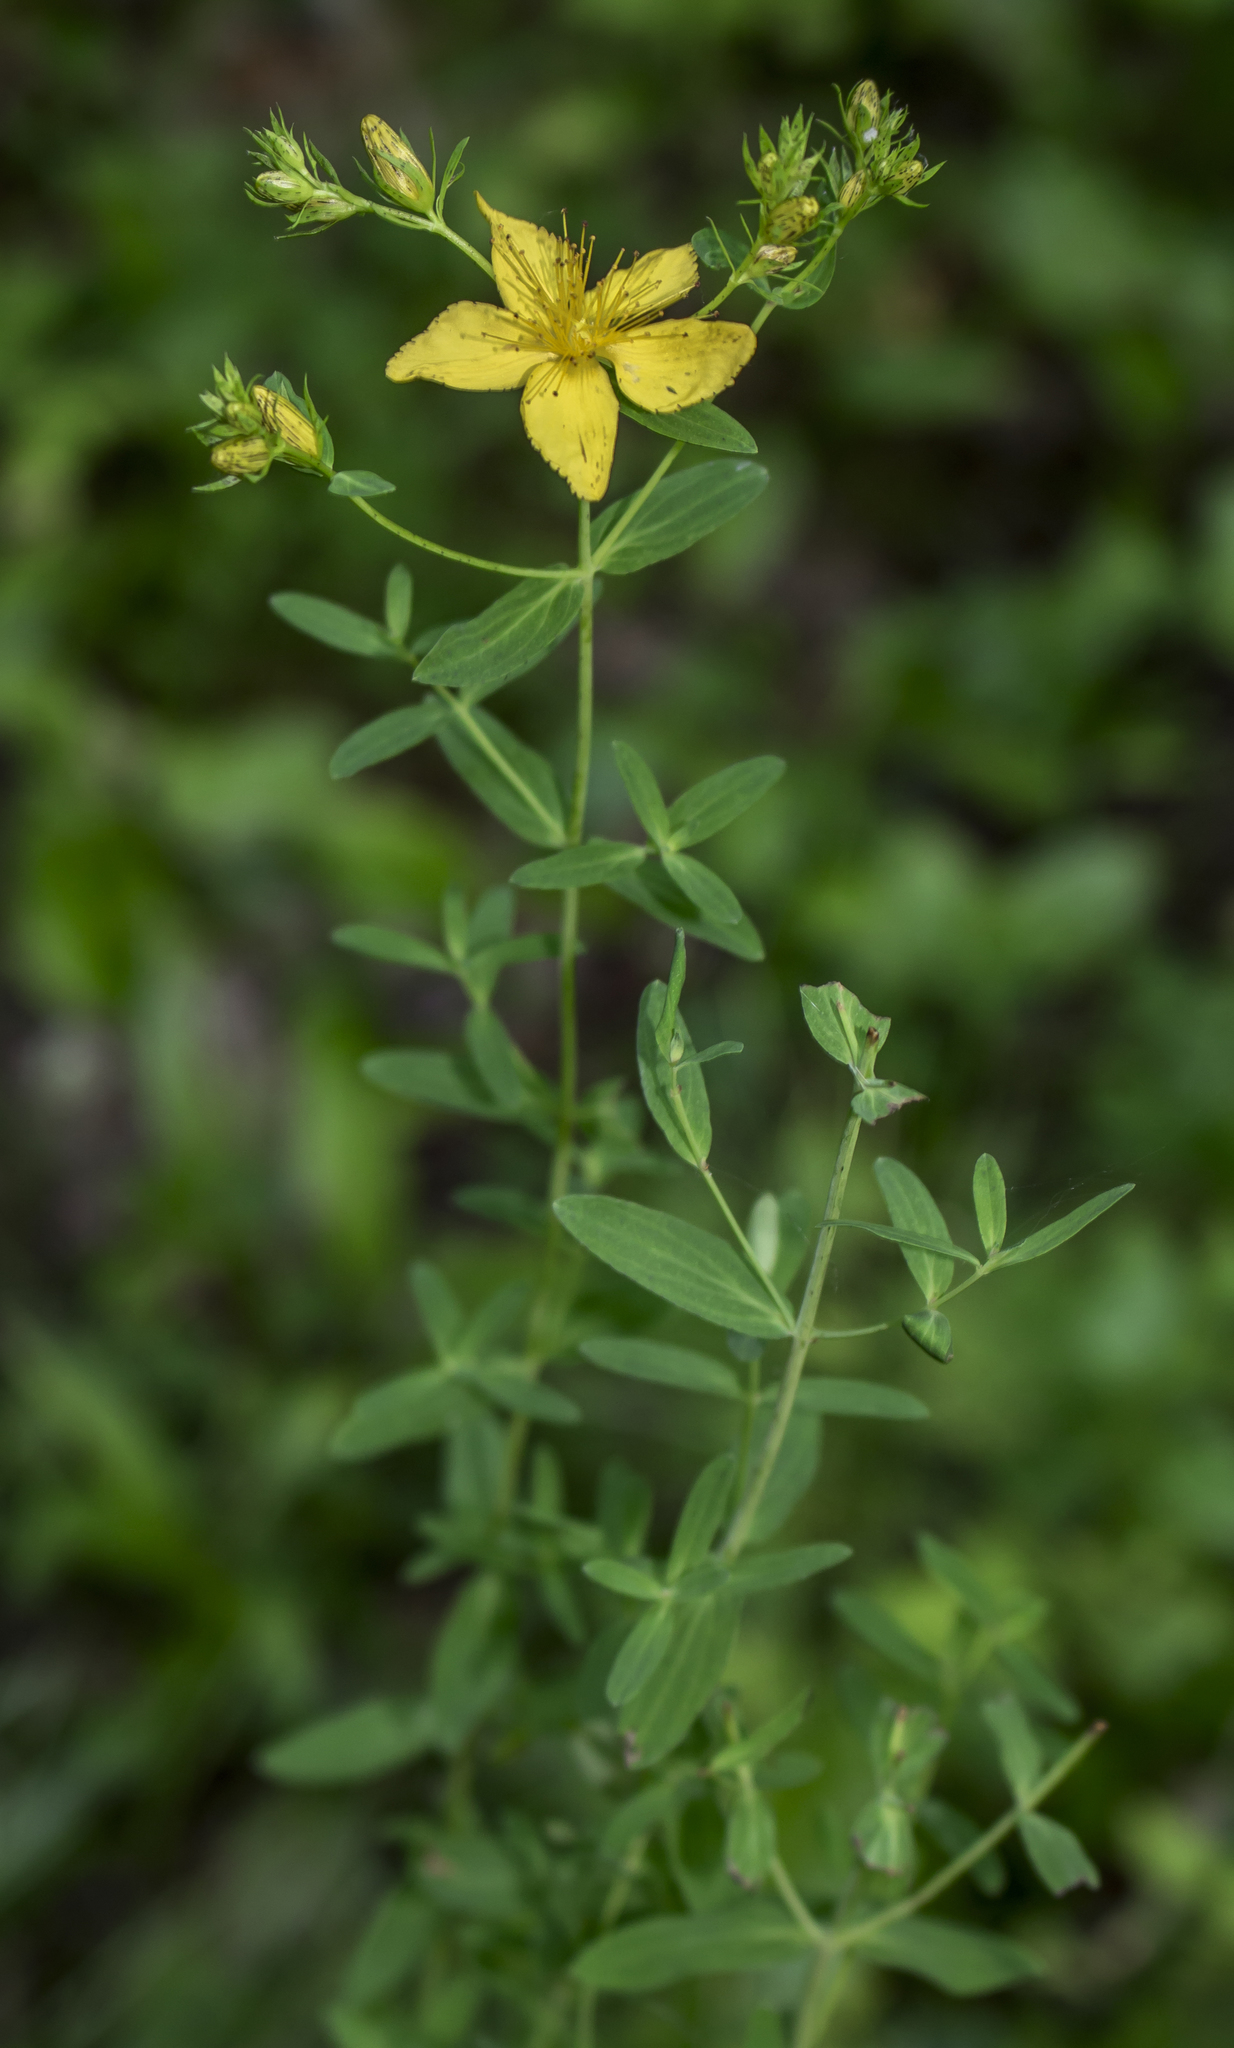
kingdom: Plantae
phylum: Tracheophyta
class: Magnoliopsida
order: Malpighiales
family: Hypericaceae
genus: Hypericum
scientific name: Hypericum perforatum
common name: Common st. johnswort
